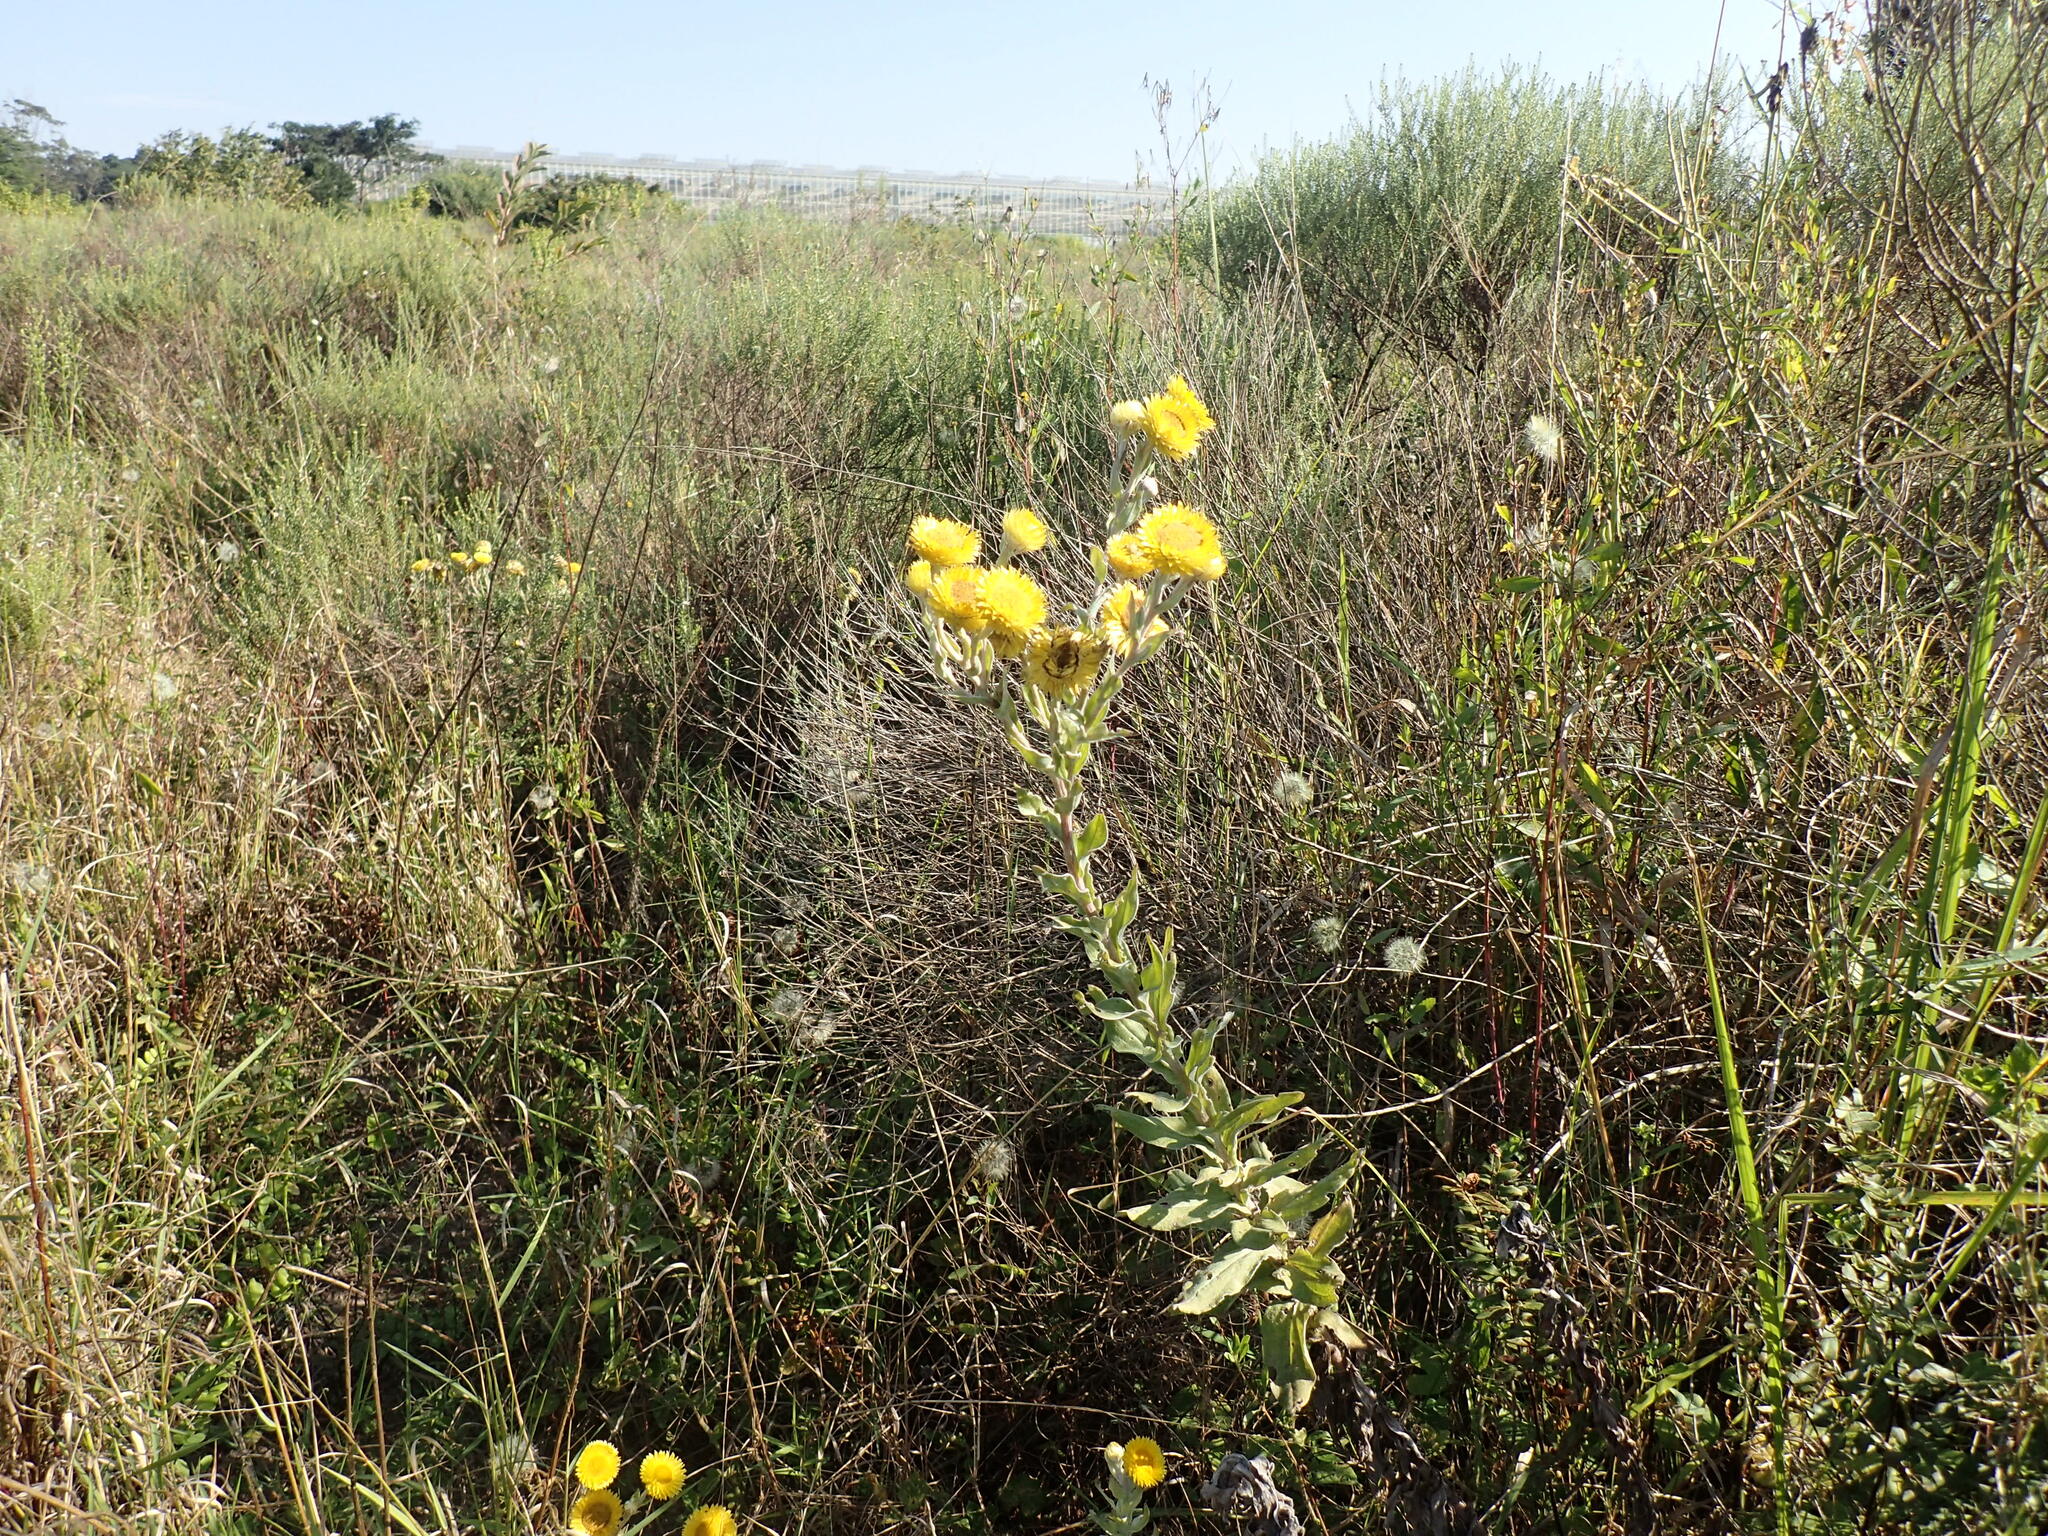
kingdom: Plantae
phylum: Tracheophyta
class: Magnoliopsida
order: Asterales
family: Asteraceae
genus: Helichrysum
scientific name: Helichrysum decorum
